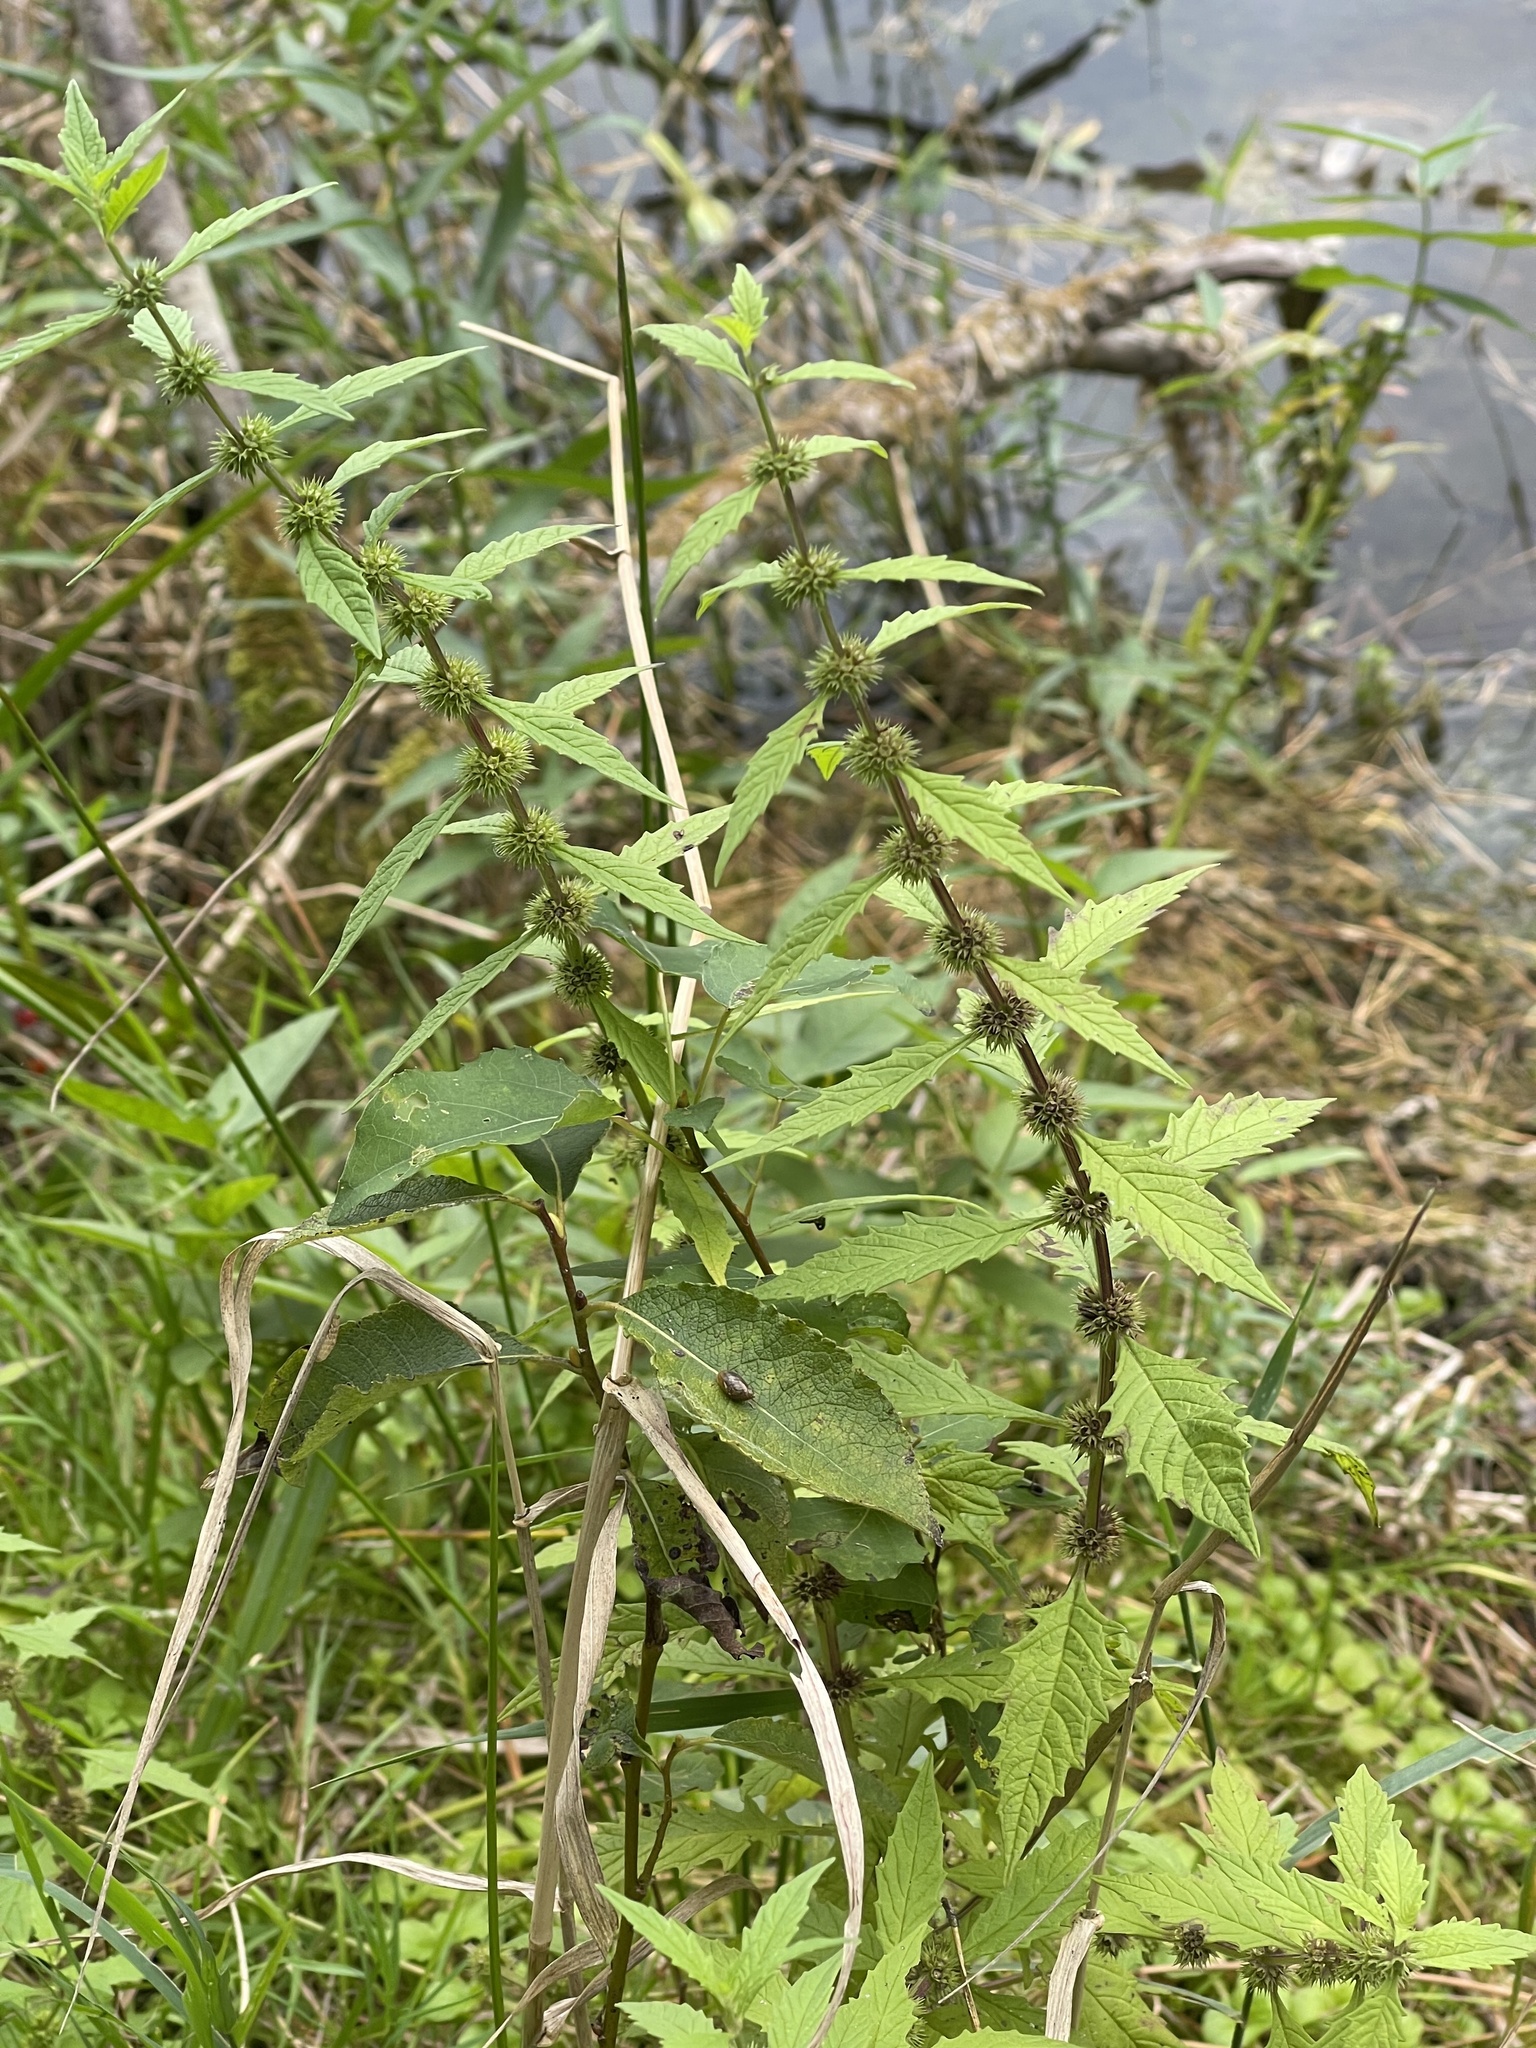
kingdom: Plantae
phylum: Tracheophyta
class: Magnoliopsida
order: Lamiales
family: Lamiaceae
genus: Lycopus
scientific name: Lycopus europaeus
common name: European bugleweed
